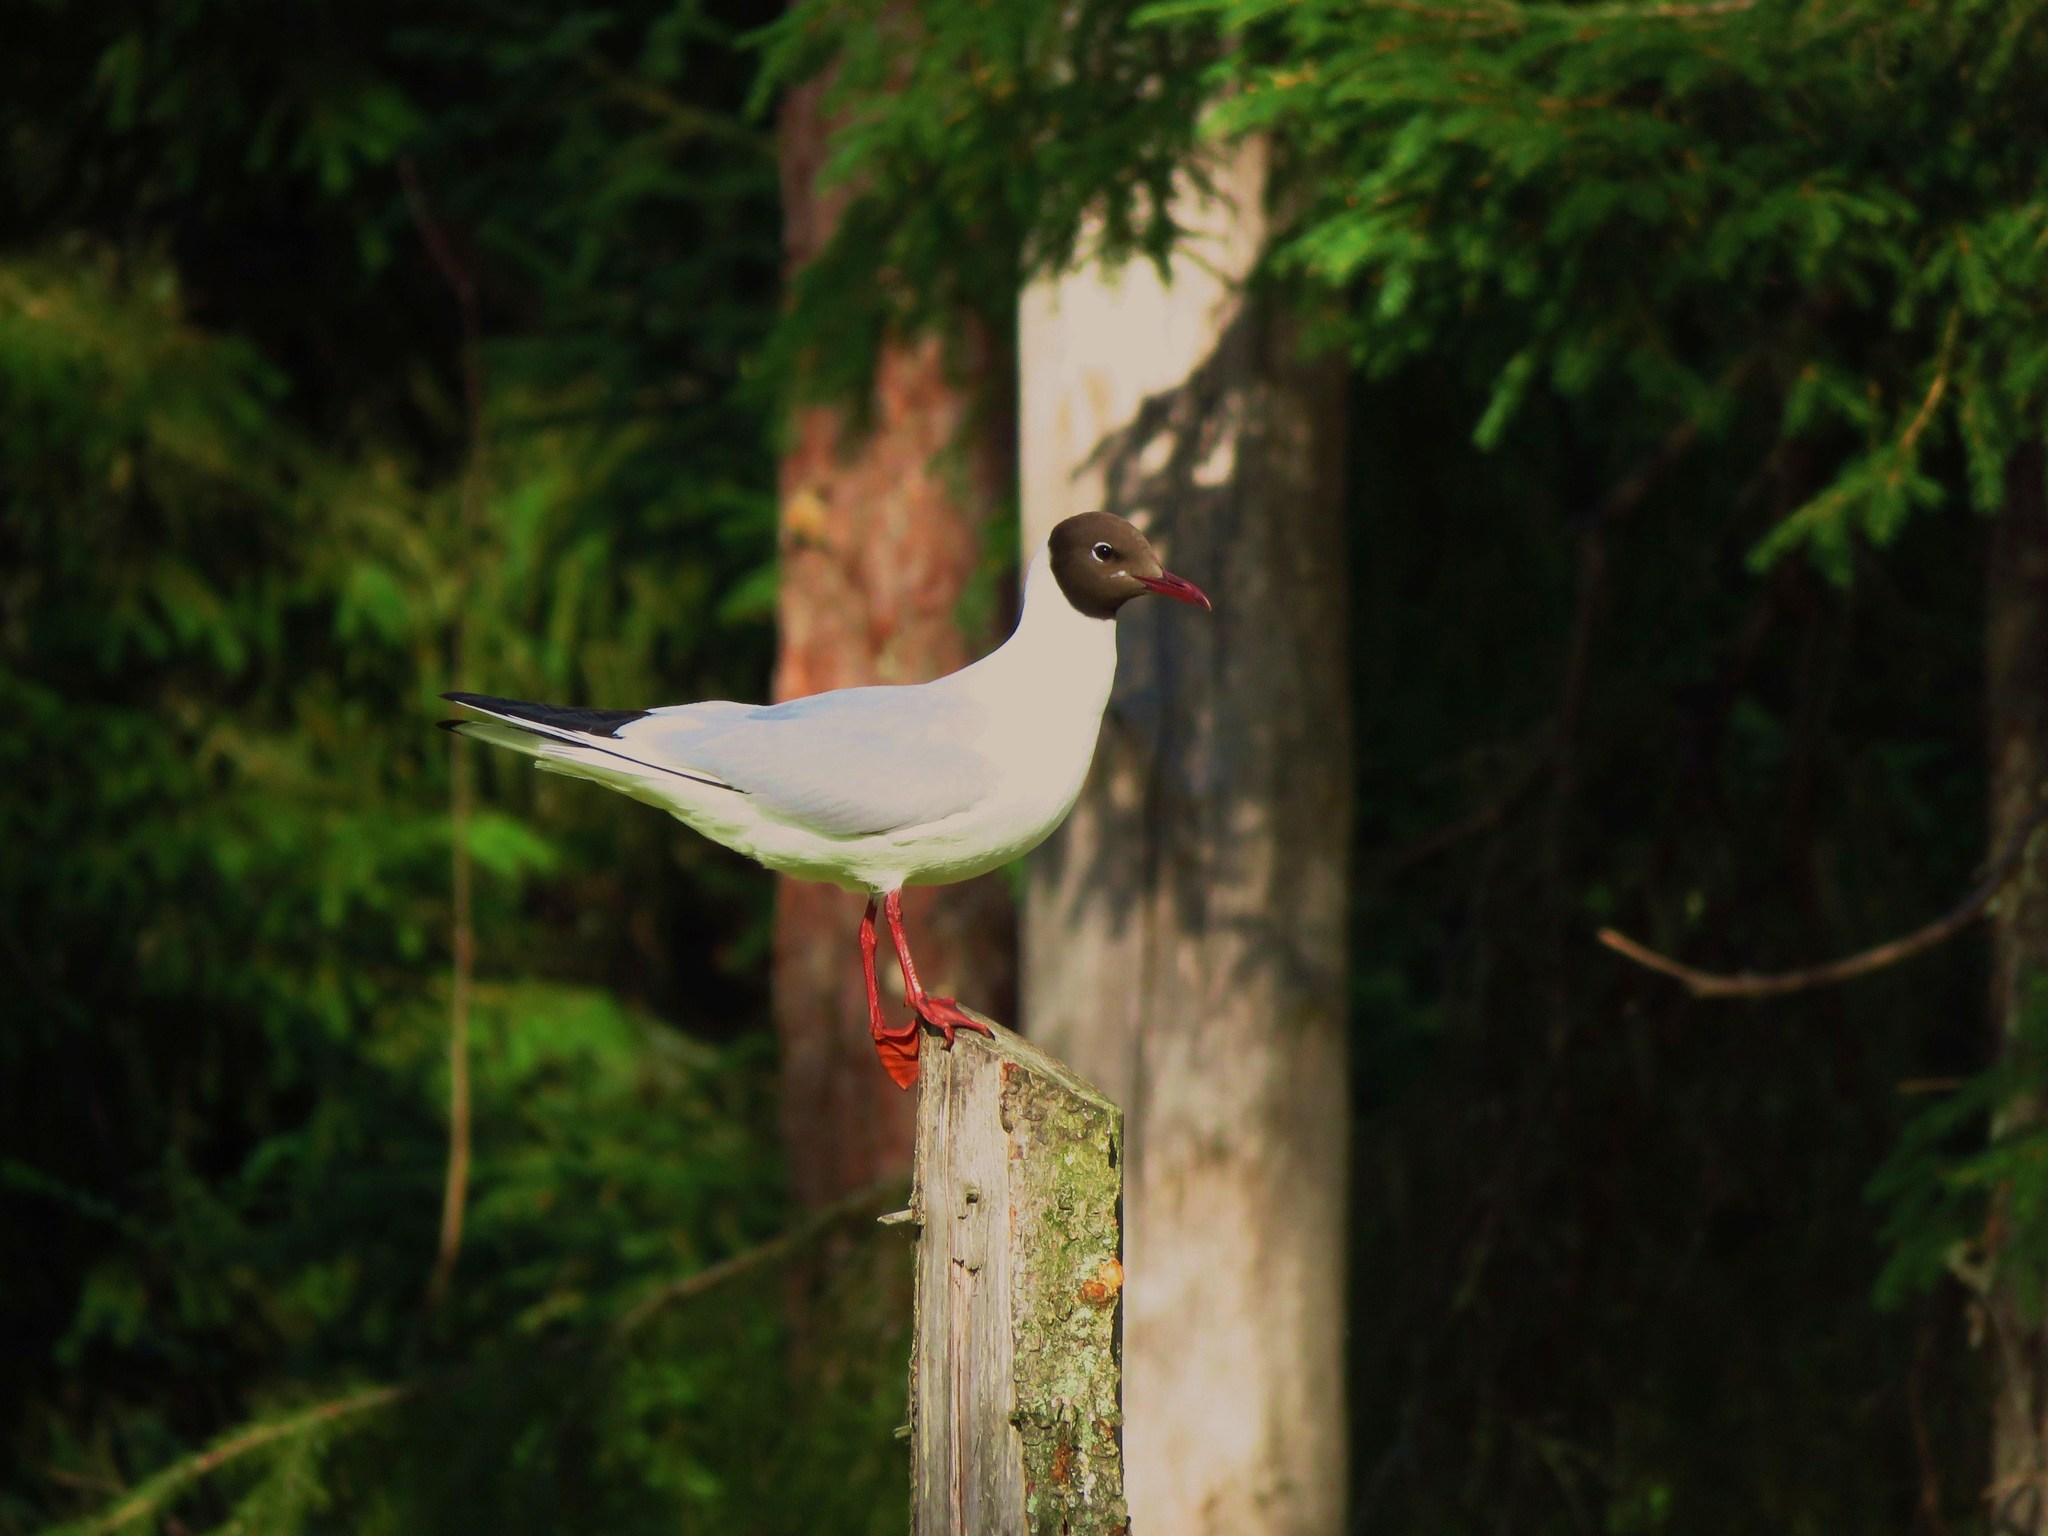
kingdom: Animalia
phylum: Chordata
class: Aves
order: Charadriiformes
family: Laridae
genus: Chroicocephalus
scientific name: Chroicocephalus ridibundus
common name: Black-headed gull
